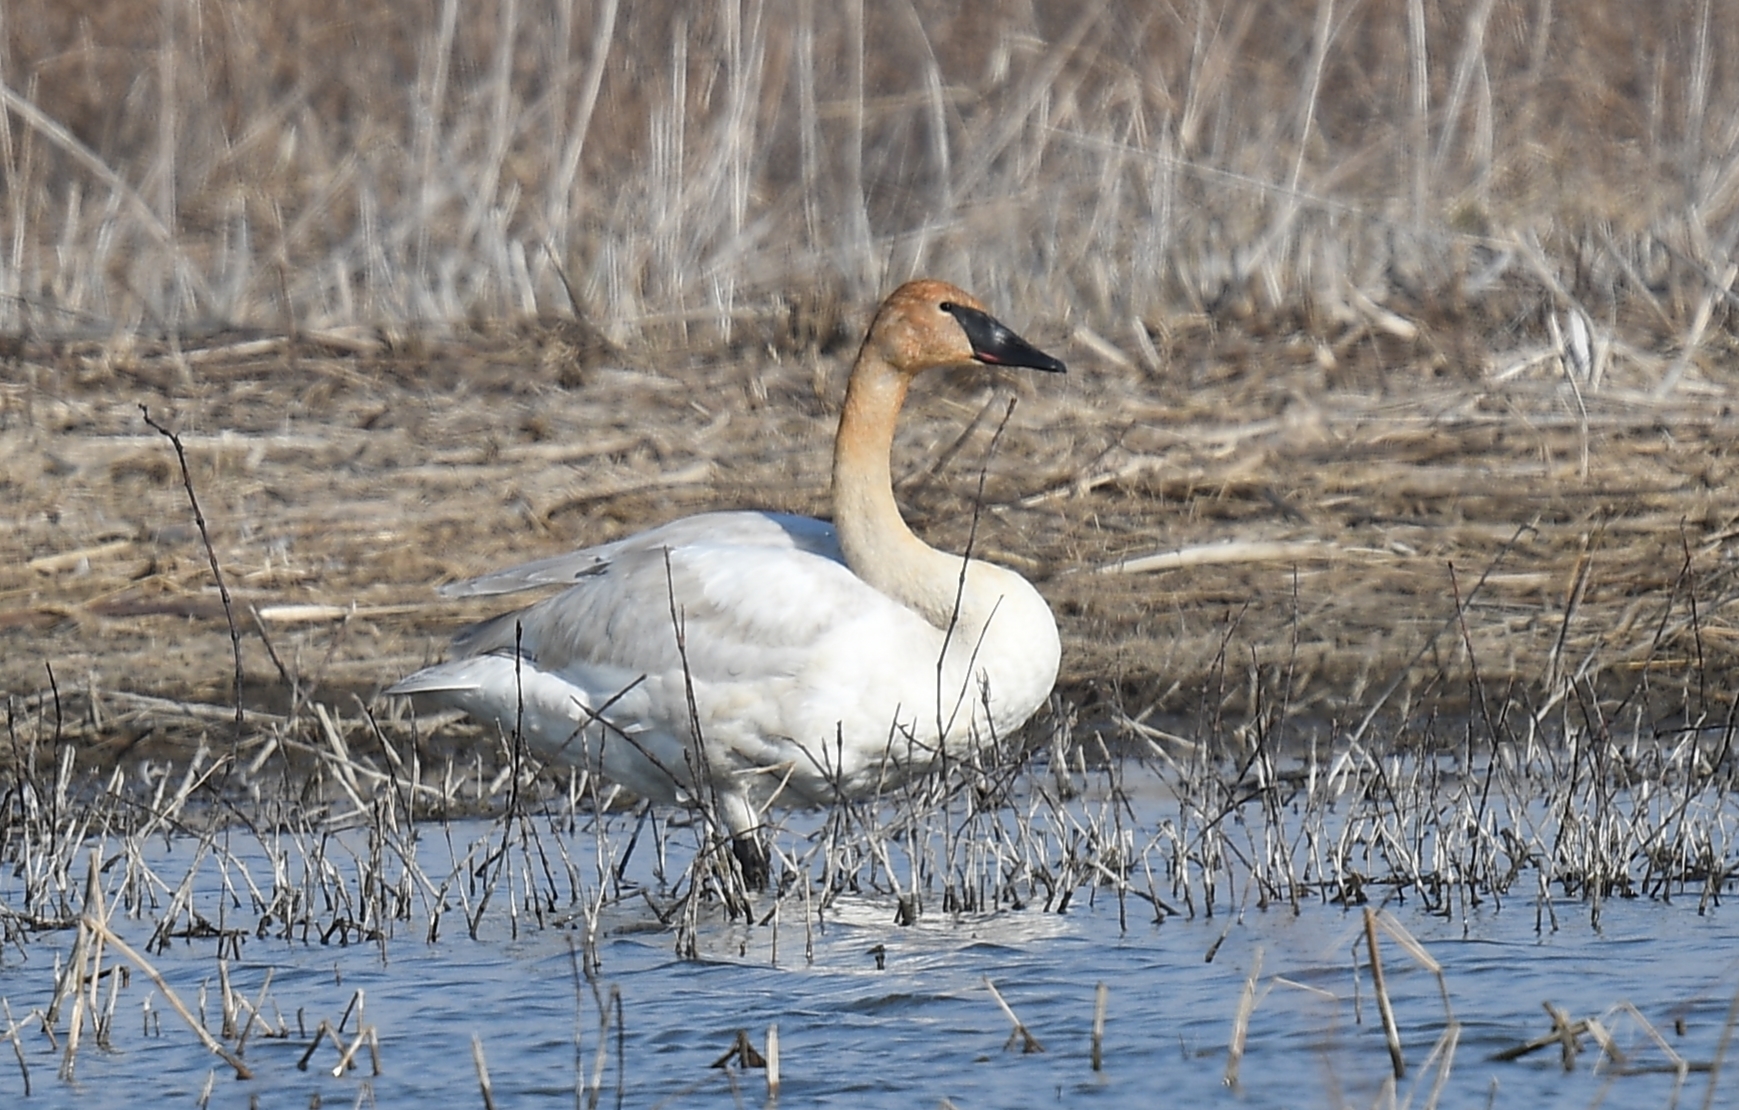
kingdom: Animalia
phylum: Chordata
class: Aves
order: Anseriformes
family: Anatidae
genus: Cygnus
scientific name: Cygnus buccinator
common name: Trumpeter swan
